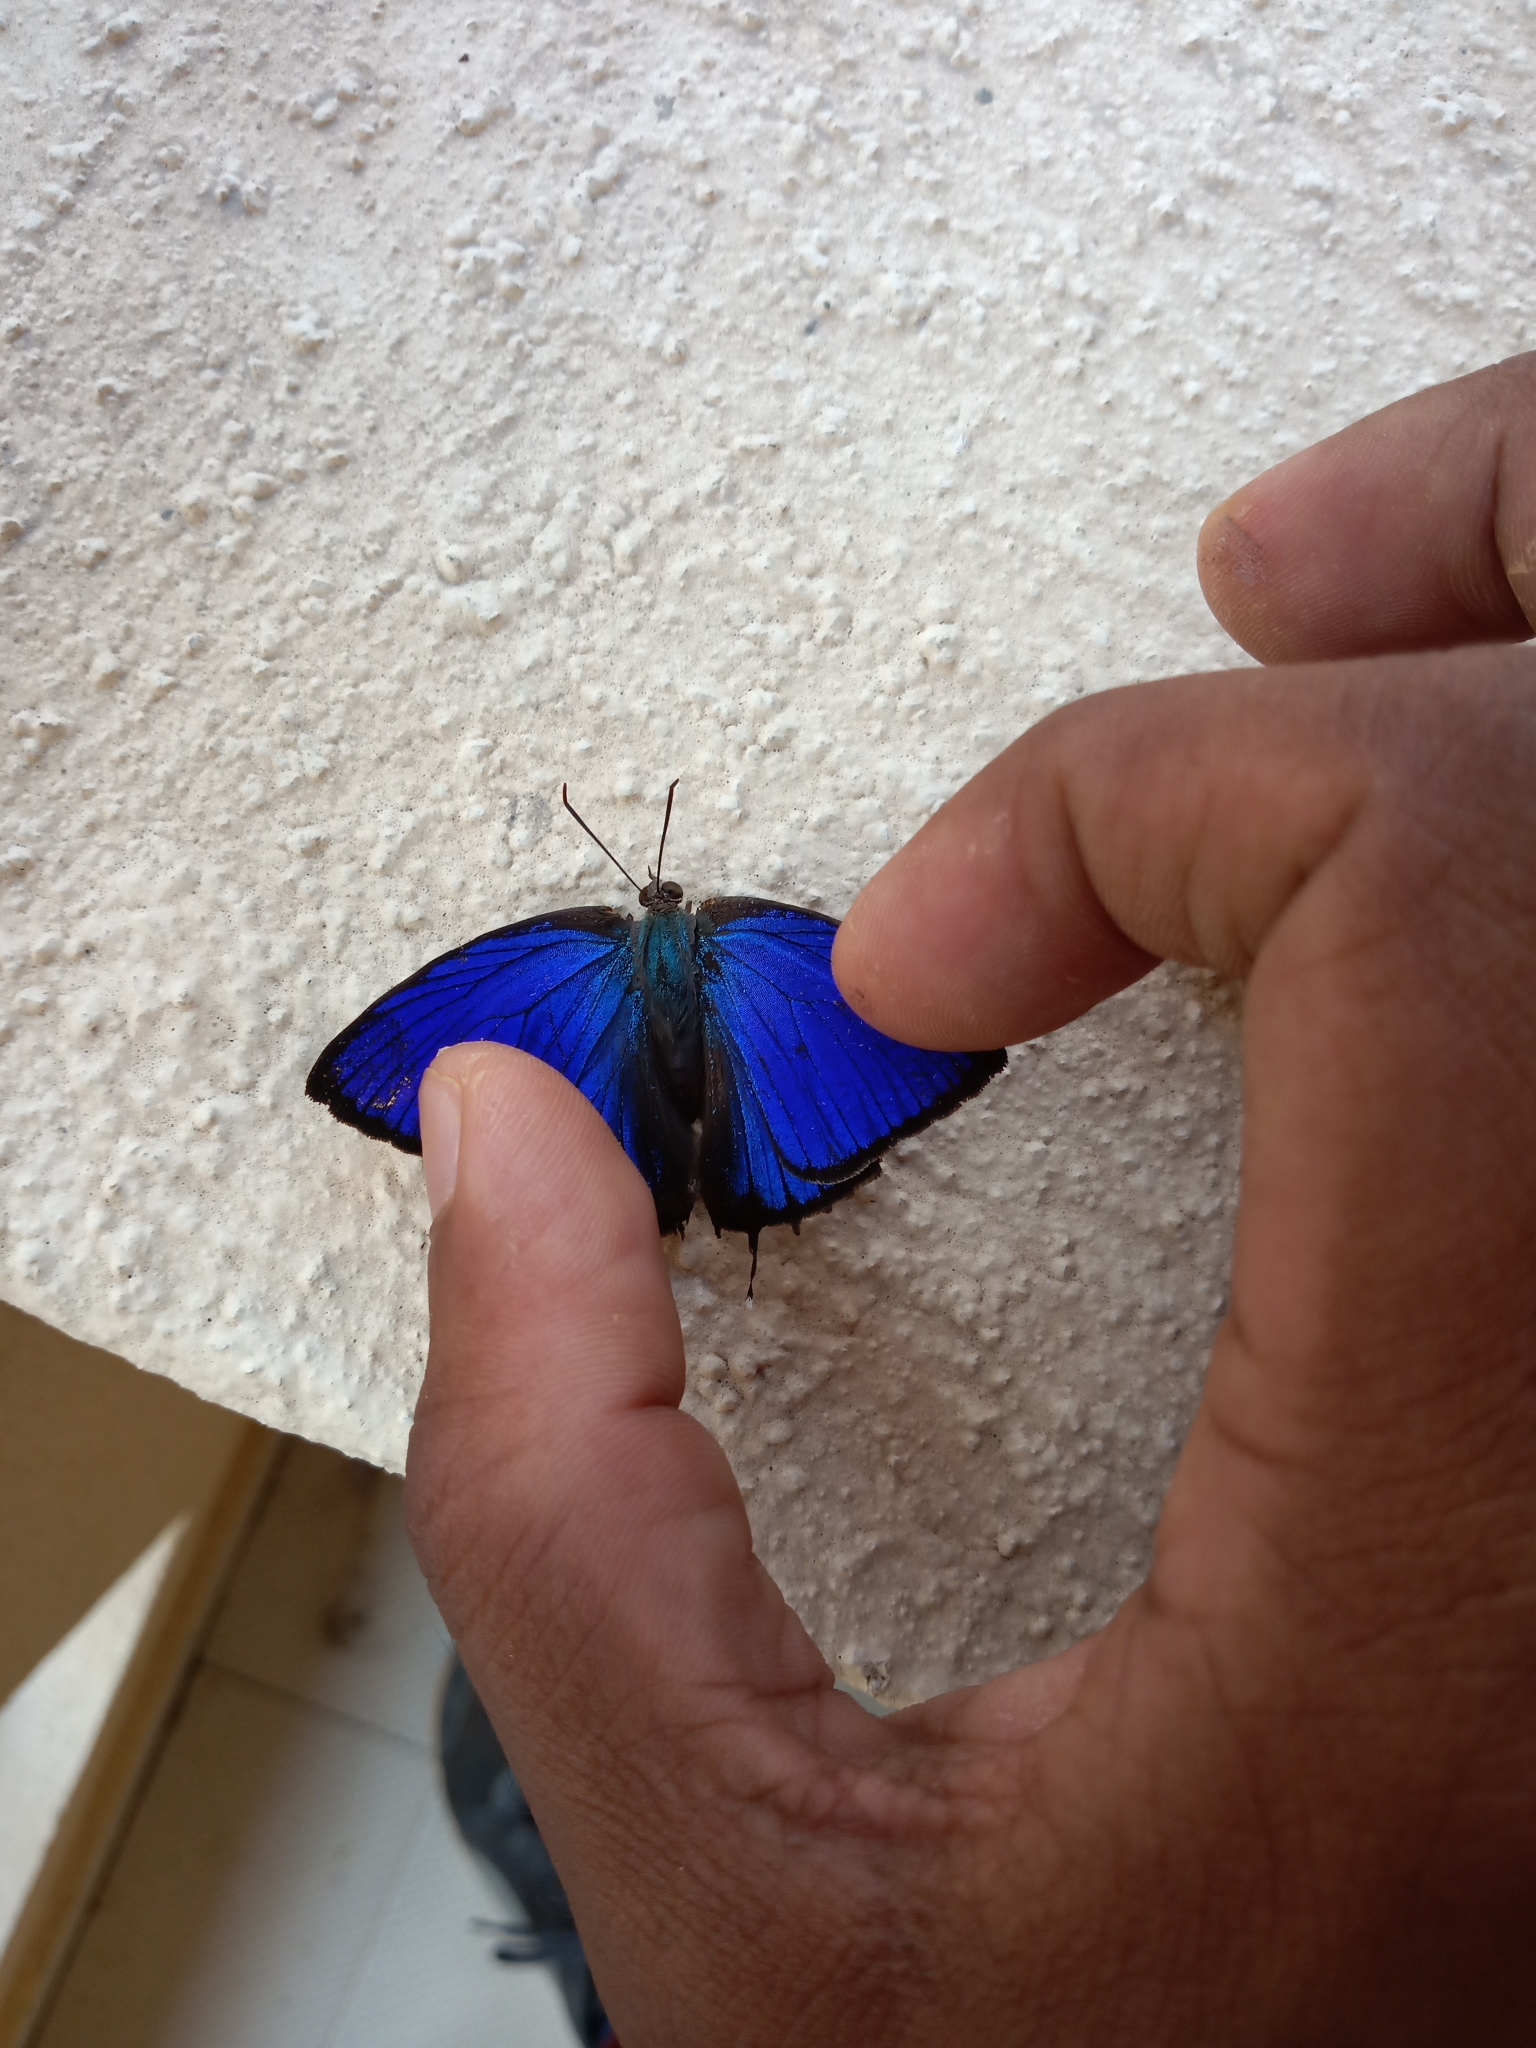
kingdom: Animalia
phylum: Arthropoda
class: Insecta
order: Lepidoptera
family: Lycaenidae
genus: Arhopala
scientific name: Arhopala amantes
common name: Large oakblue
